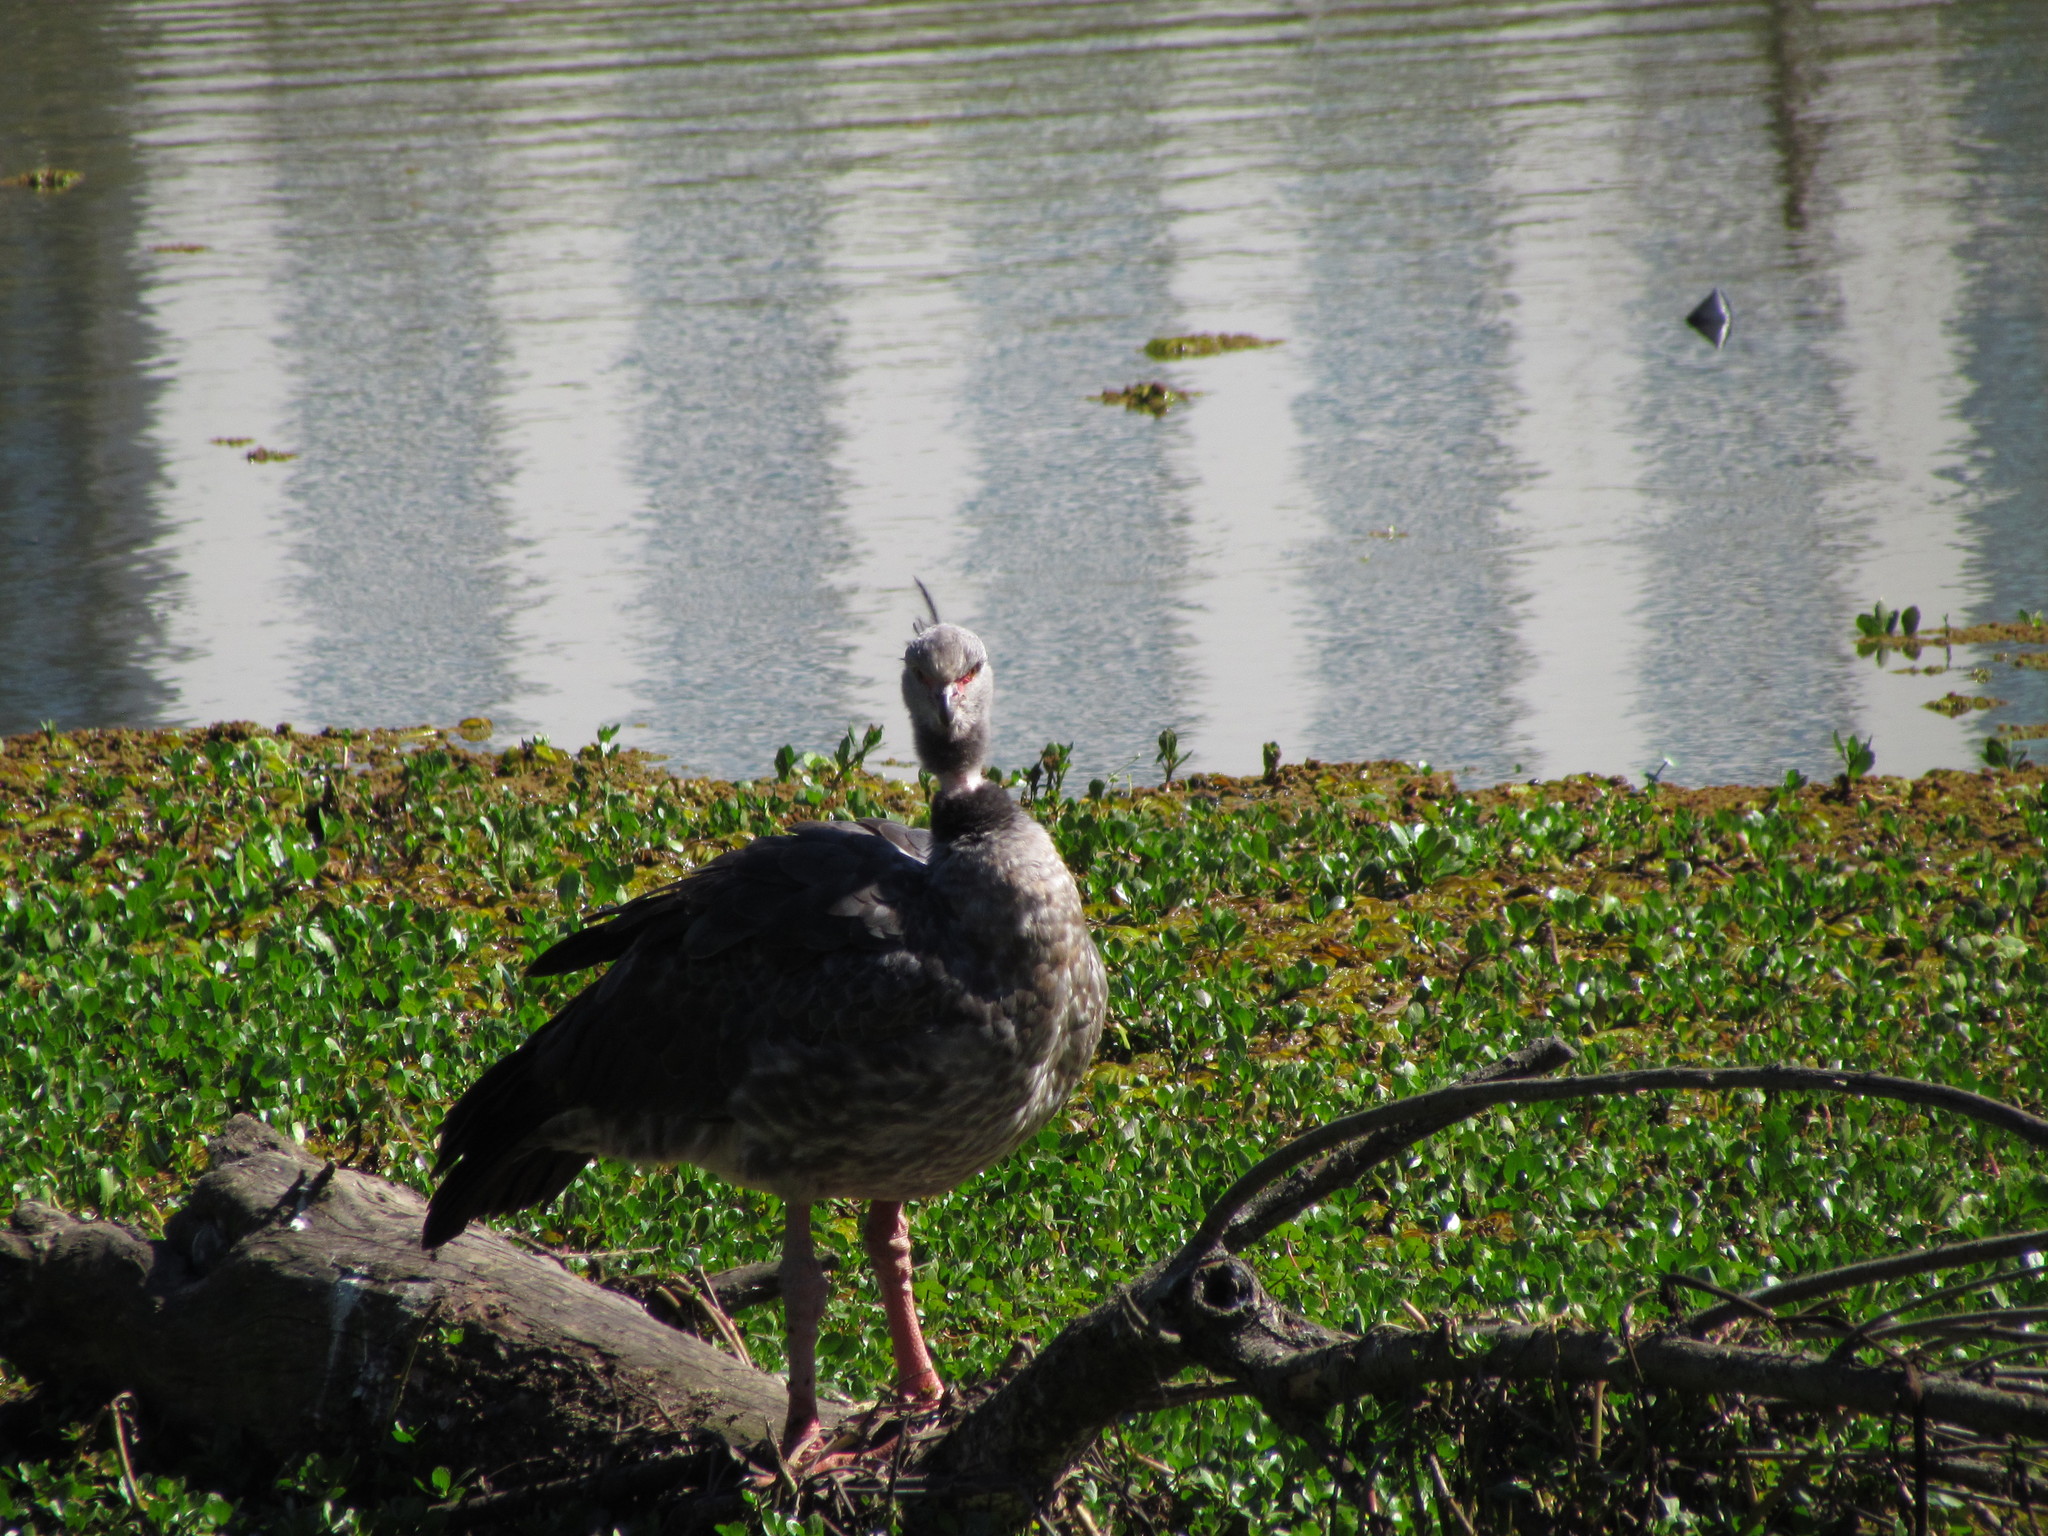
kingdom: Animalia
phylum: Chordata
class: Aves
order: Anseriformes
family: Anhimidae
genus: Chauna
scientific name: Chauna torquata
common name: Southern screamer
